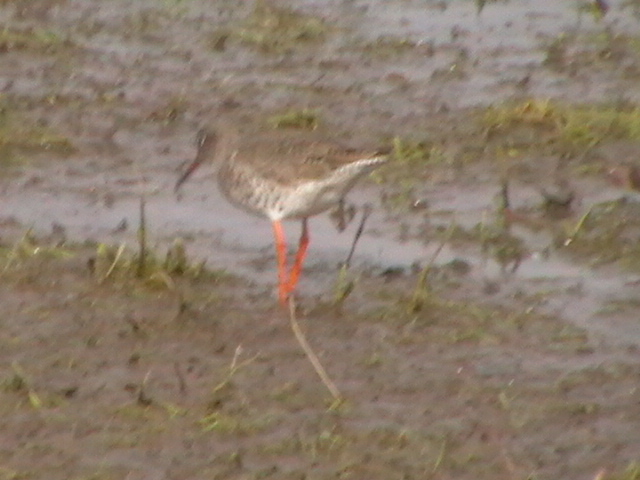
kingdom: Animalia
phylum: Chordata
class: Aves
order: Charadriiformes
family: Scolopacidae
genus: Tringa
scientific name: Tringa totanus
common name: Common redshank
